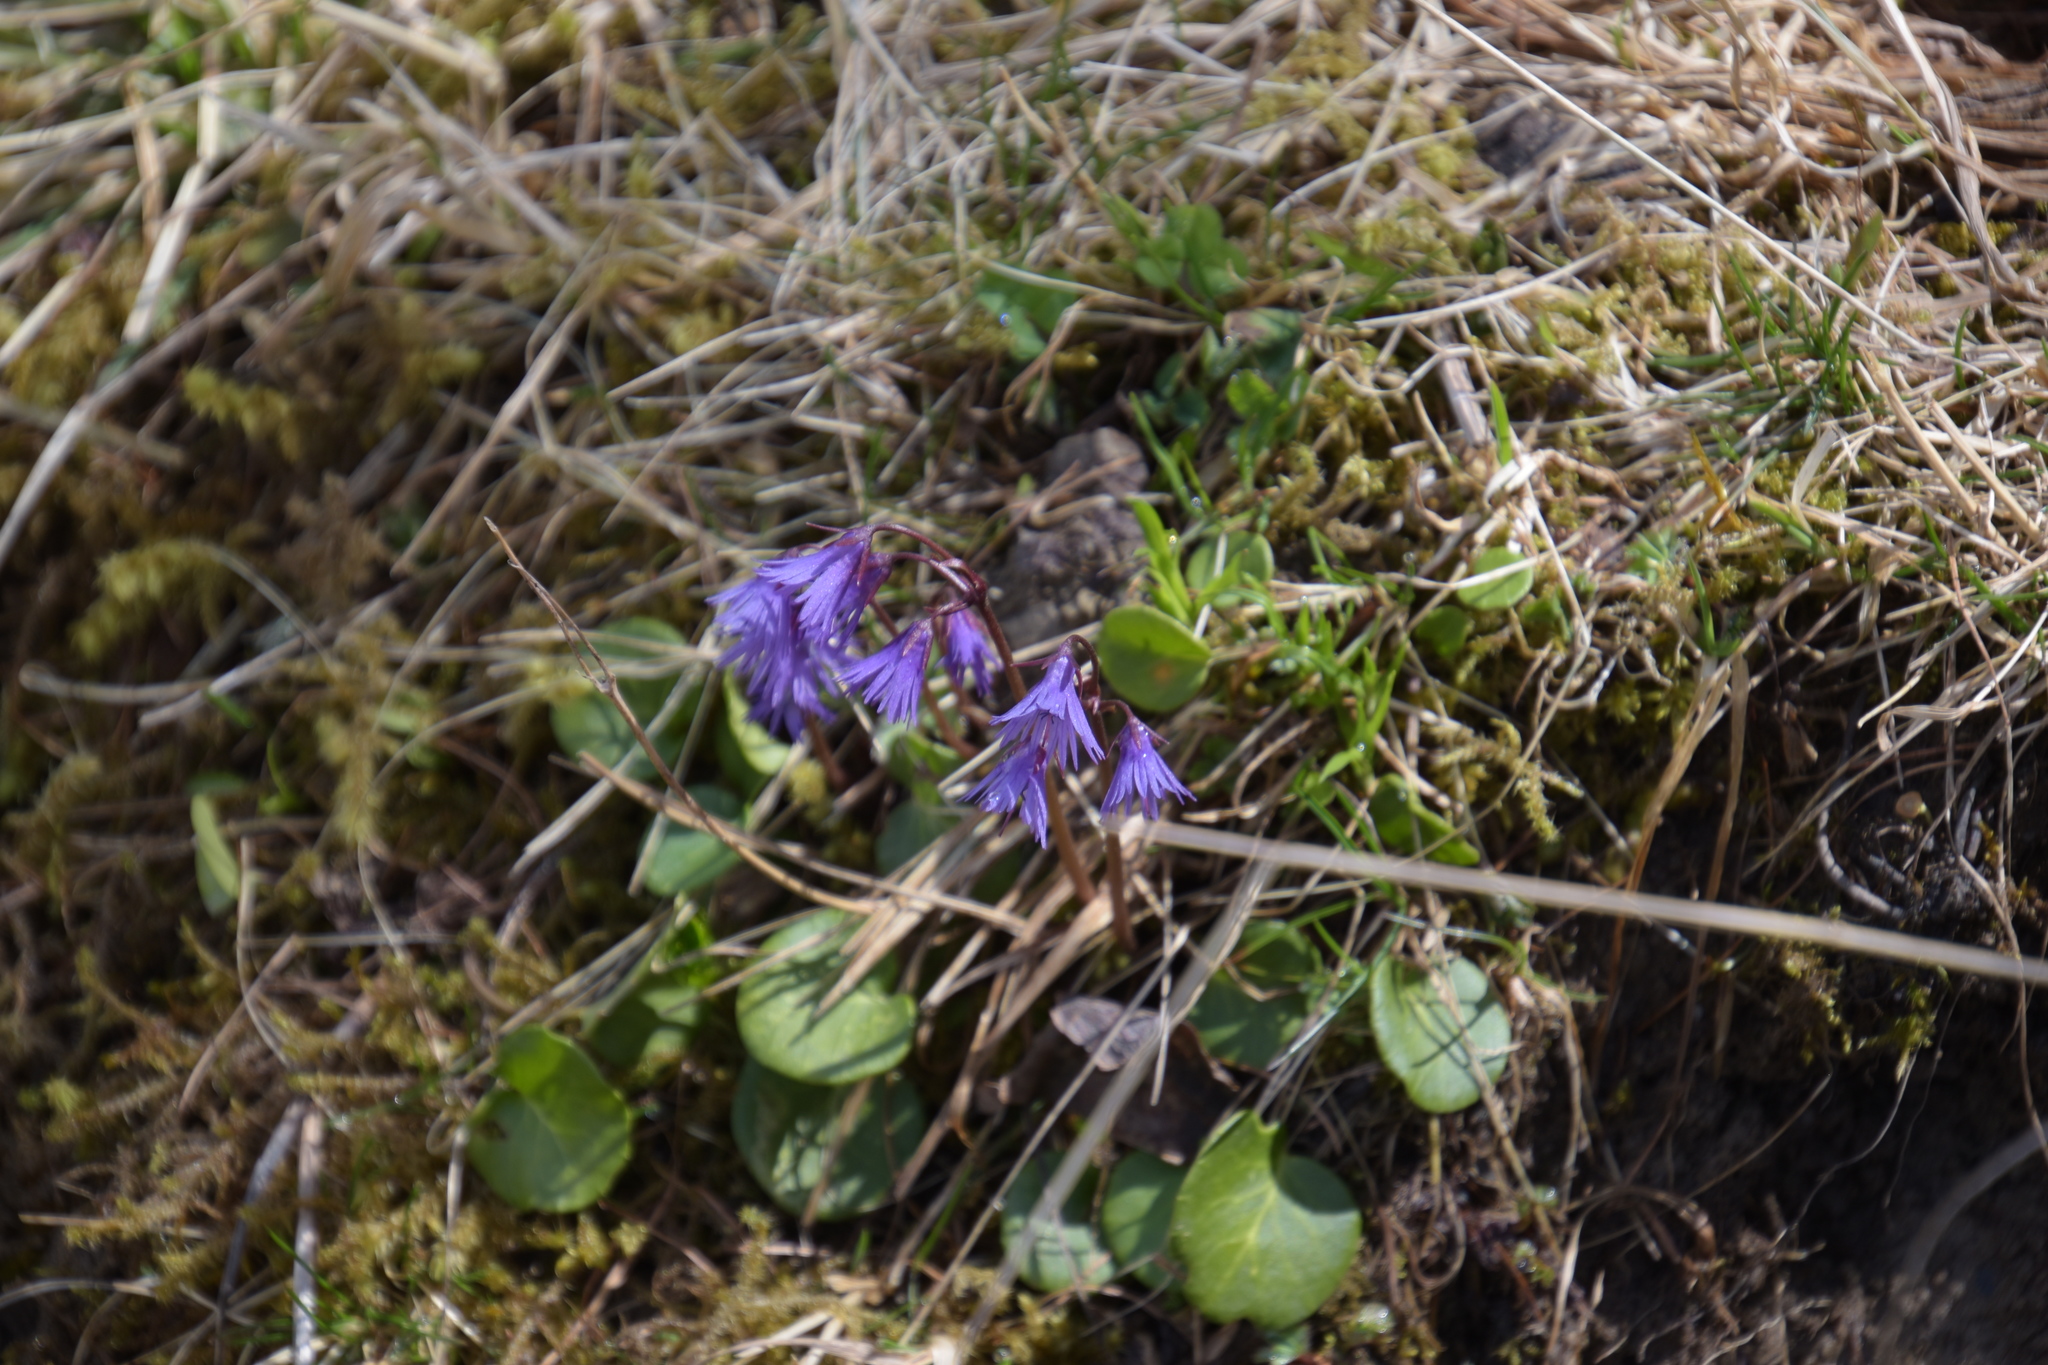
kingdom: Plantae
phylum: Tracheophyta
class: Magnoliopsida
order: Ericales
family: Primulaceae
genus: Soldanella
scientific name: Soldanella alpina
